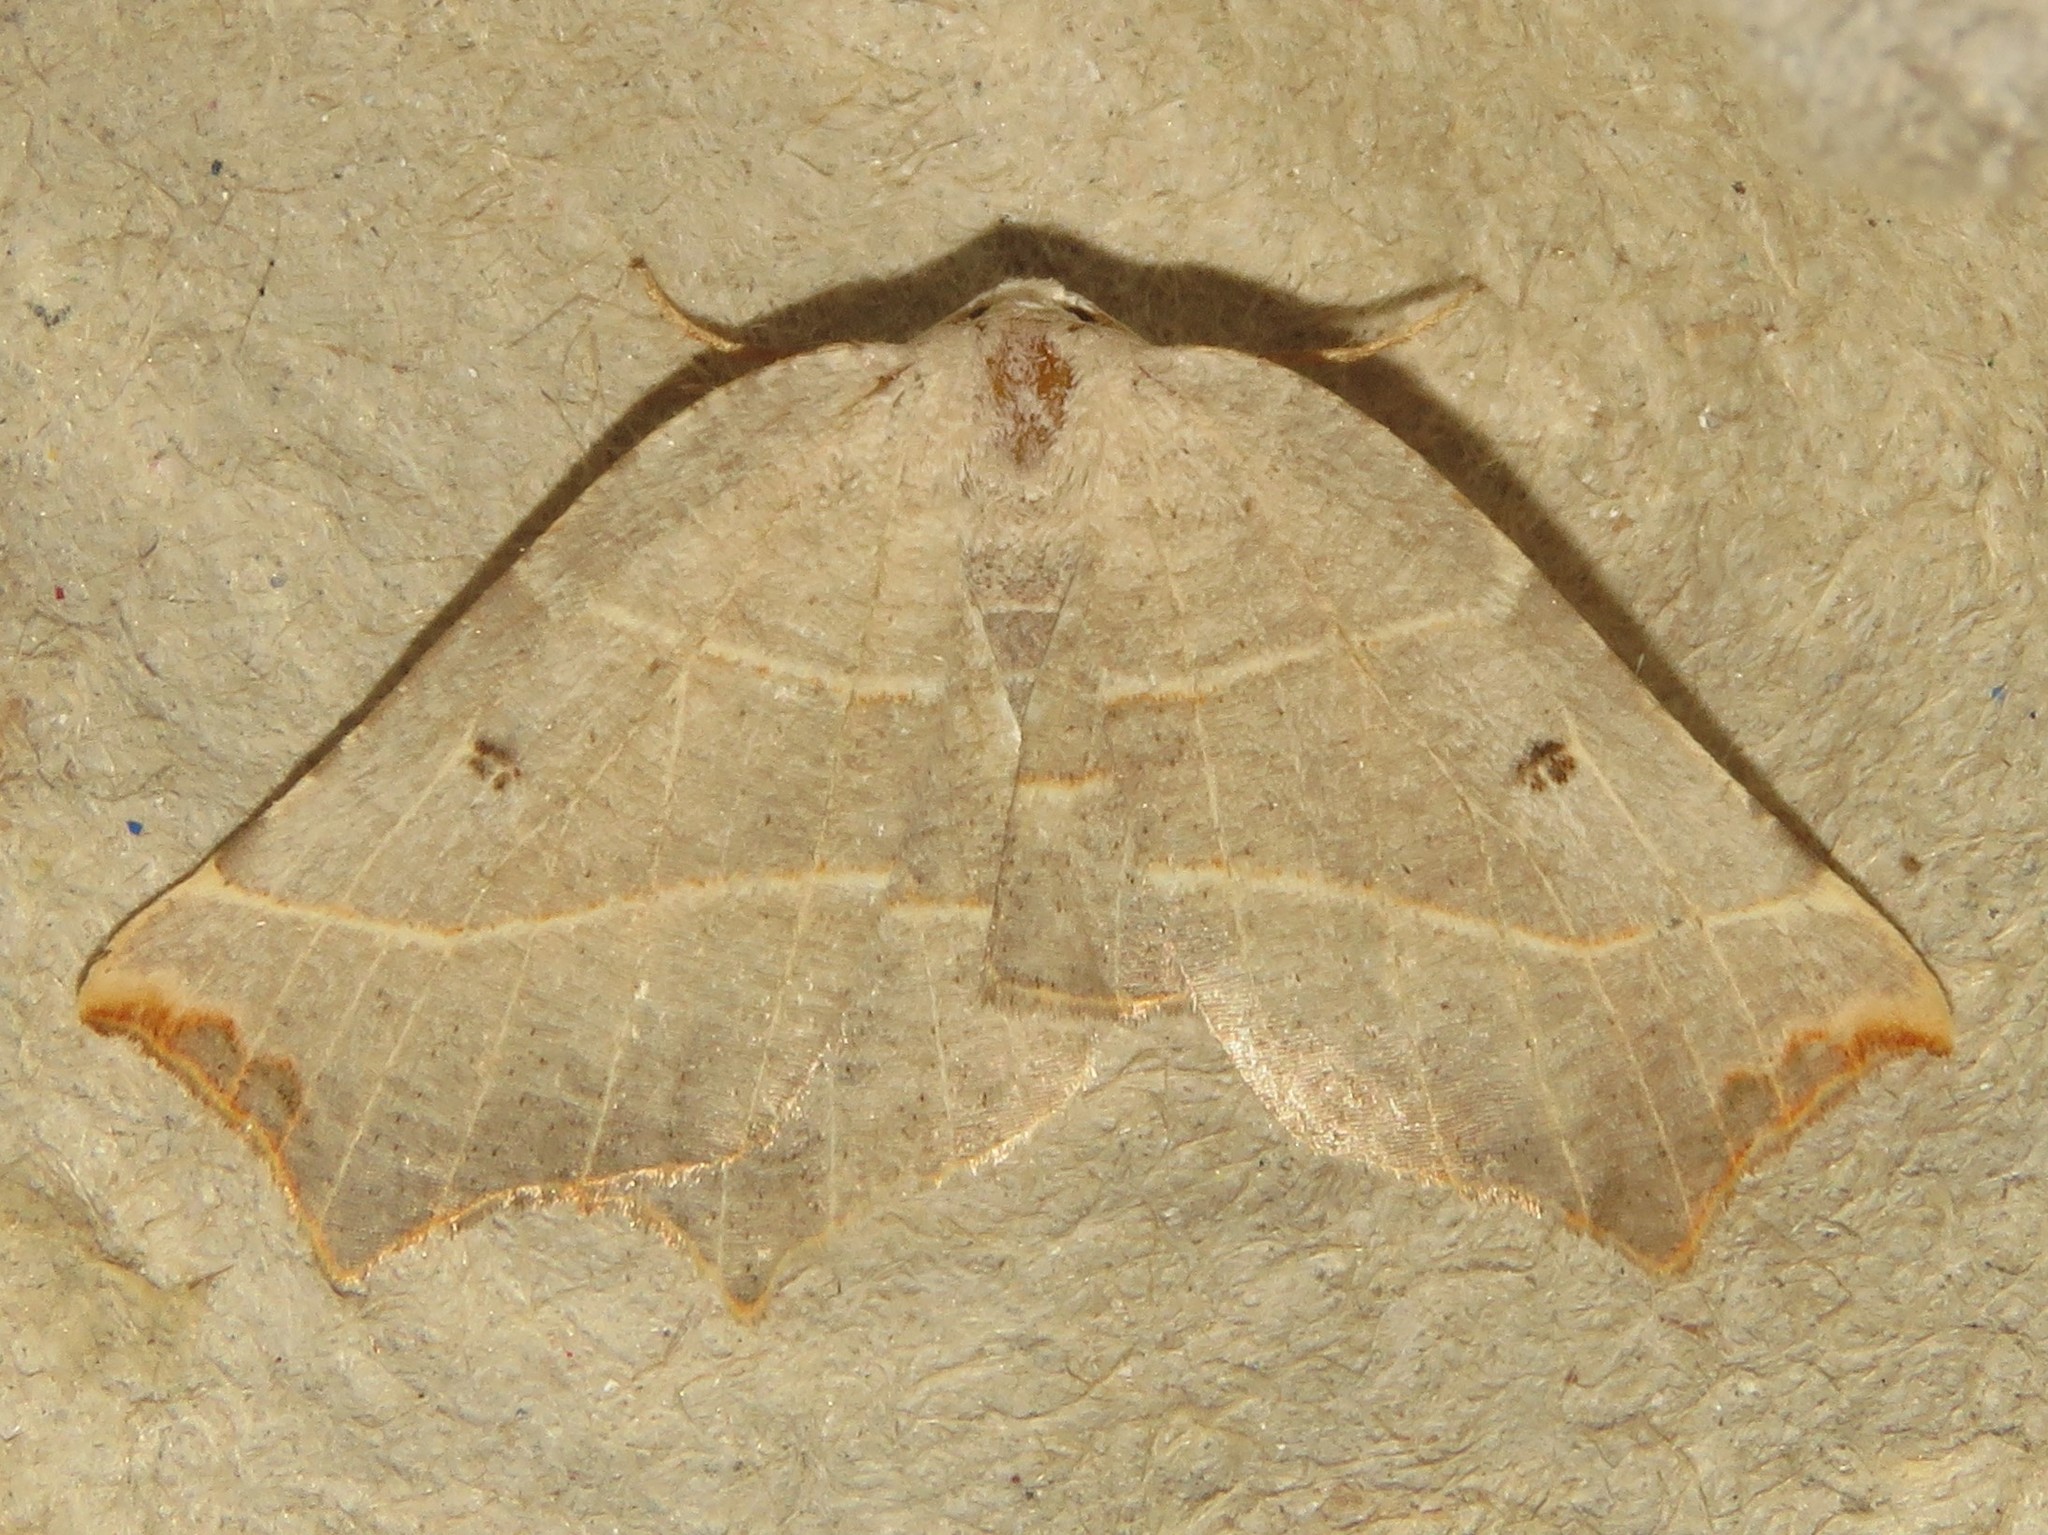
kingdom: Animalia
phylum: Arthropoda
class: Insecta
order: Lepidoptera
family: Geometridae
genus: Metanema
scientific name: Metanema inatomaria
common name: Pale metanema
